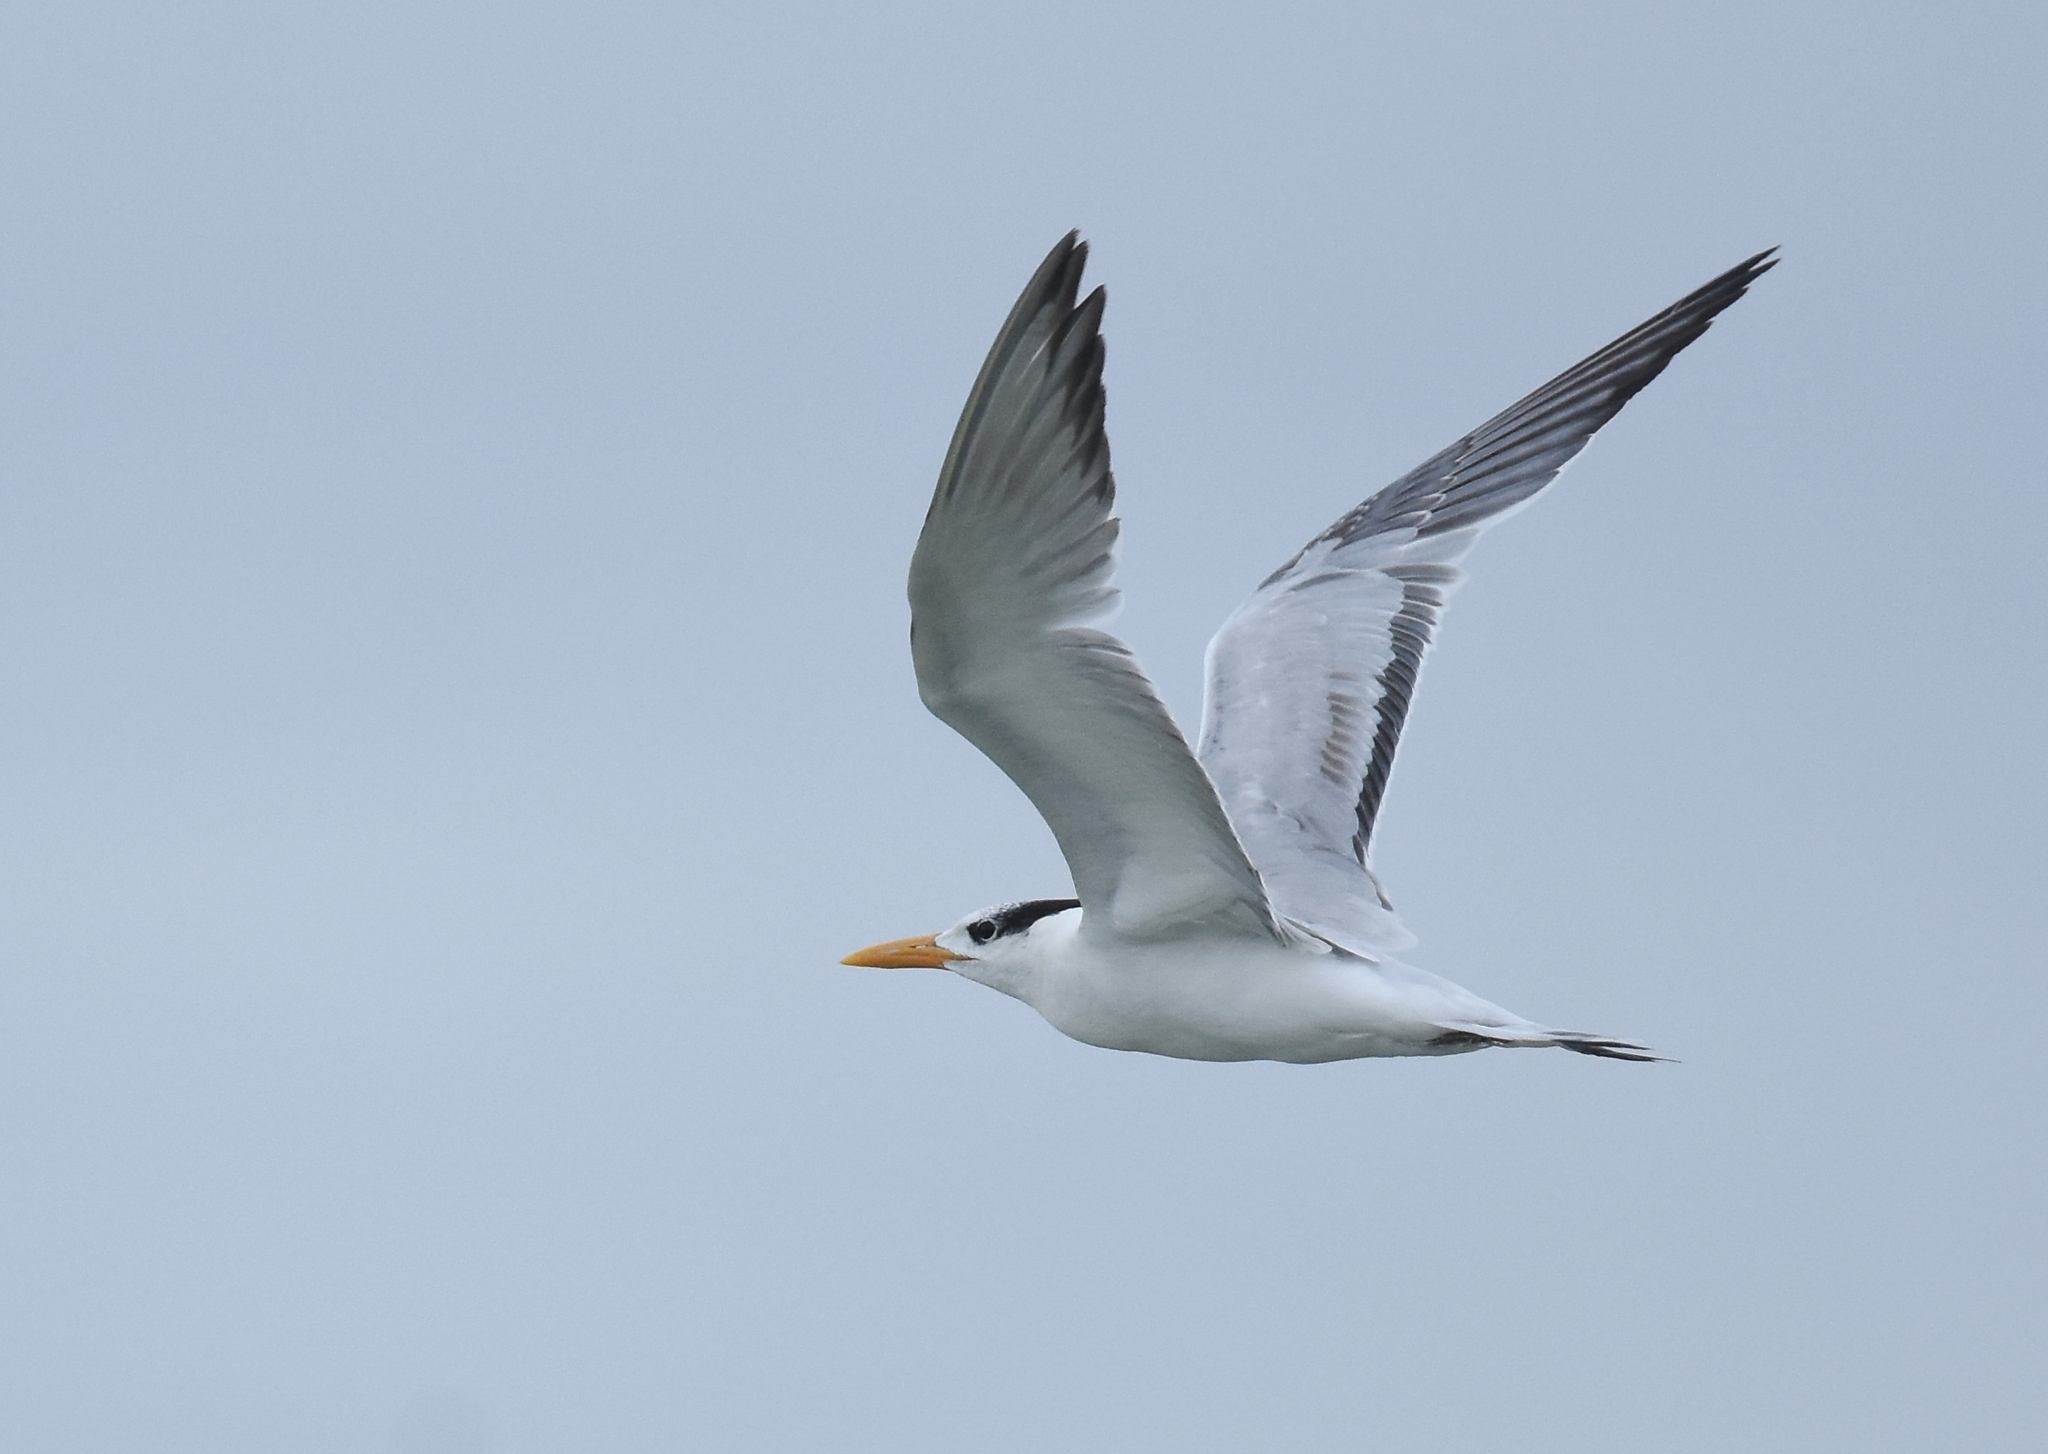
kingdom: Animalia
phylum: Chordata
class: Aves
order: Charadriiformes
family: Laridae
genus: Thalasseus
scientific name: Thalasseus maximus
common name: Royal tern
